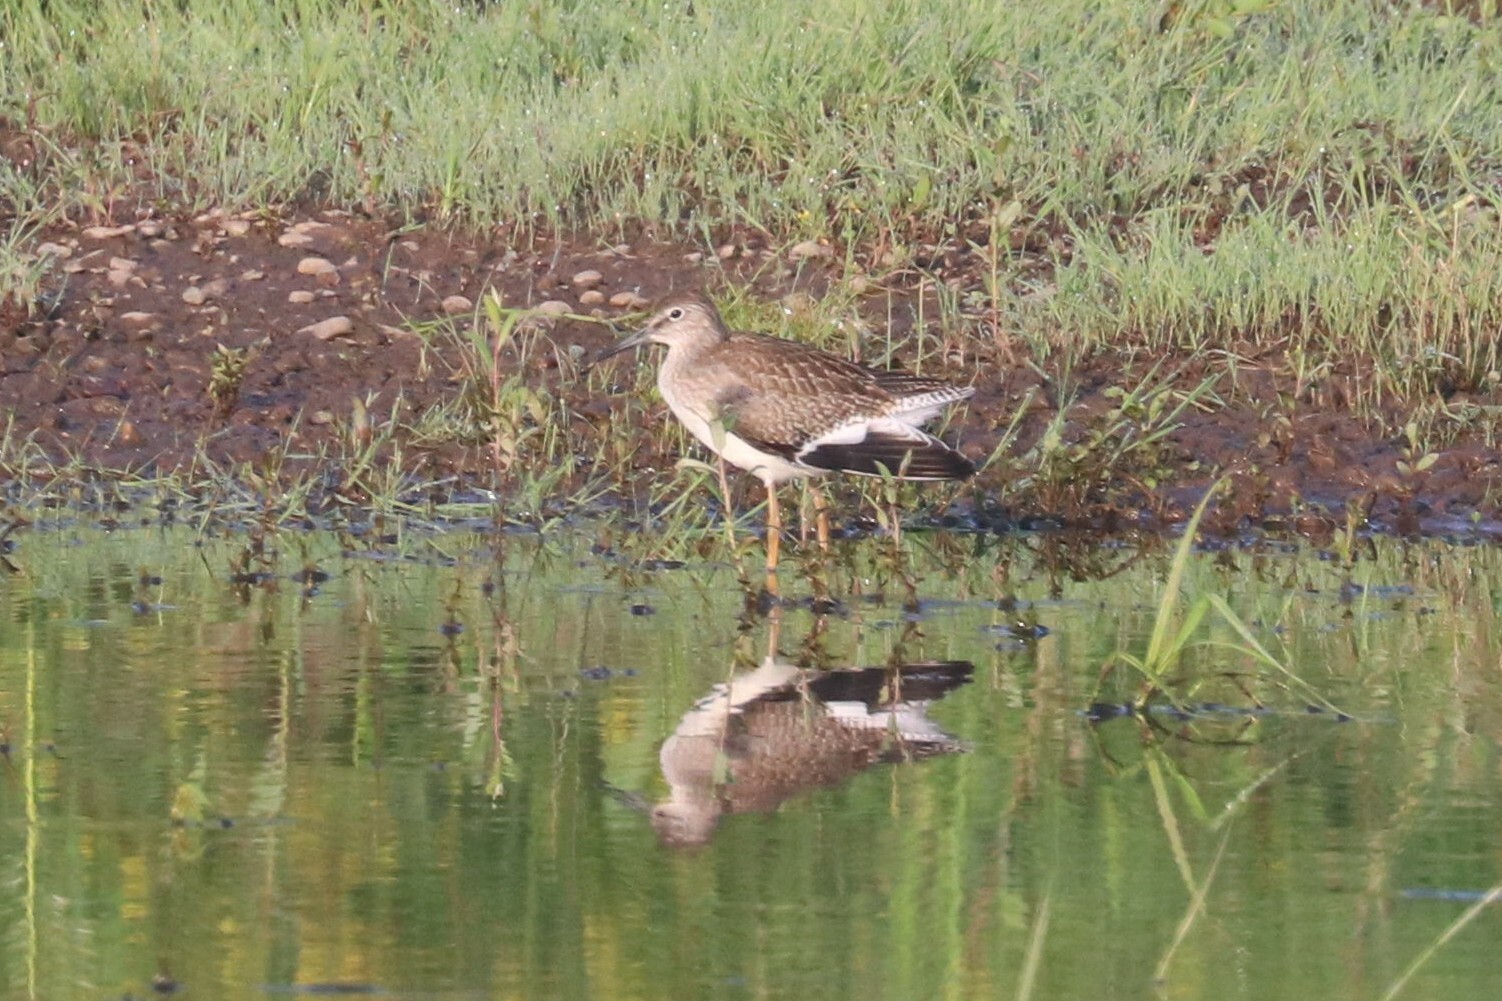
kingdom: Animalia
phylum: Chordata
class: Aves
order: Charadriiformes
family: Scolopacidae
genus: Tringa
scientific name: Tringa totanus
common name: Common redshank
